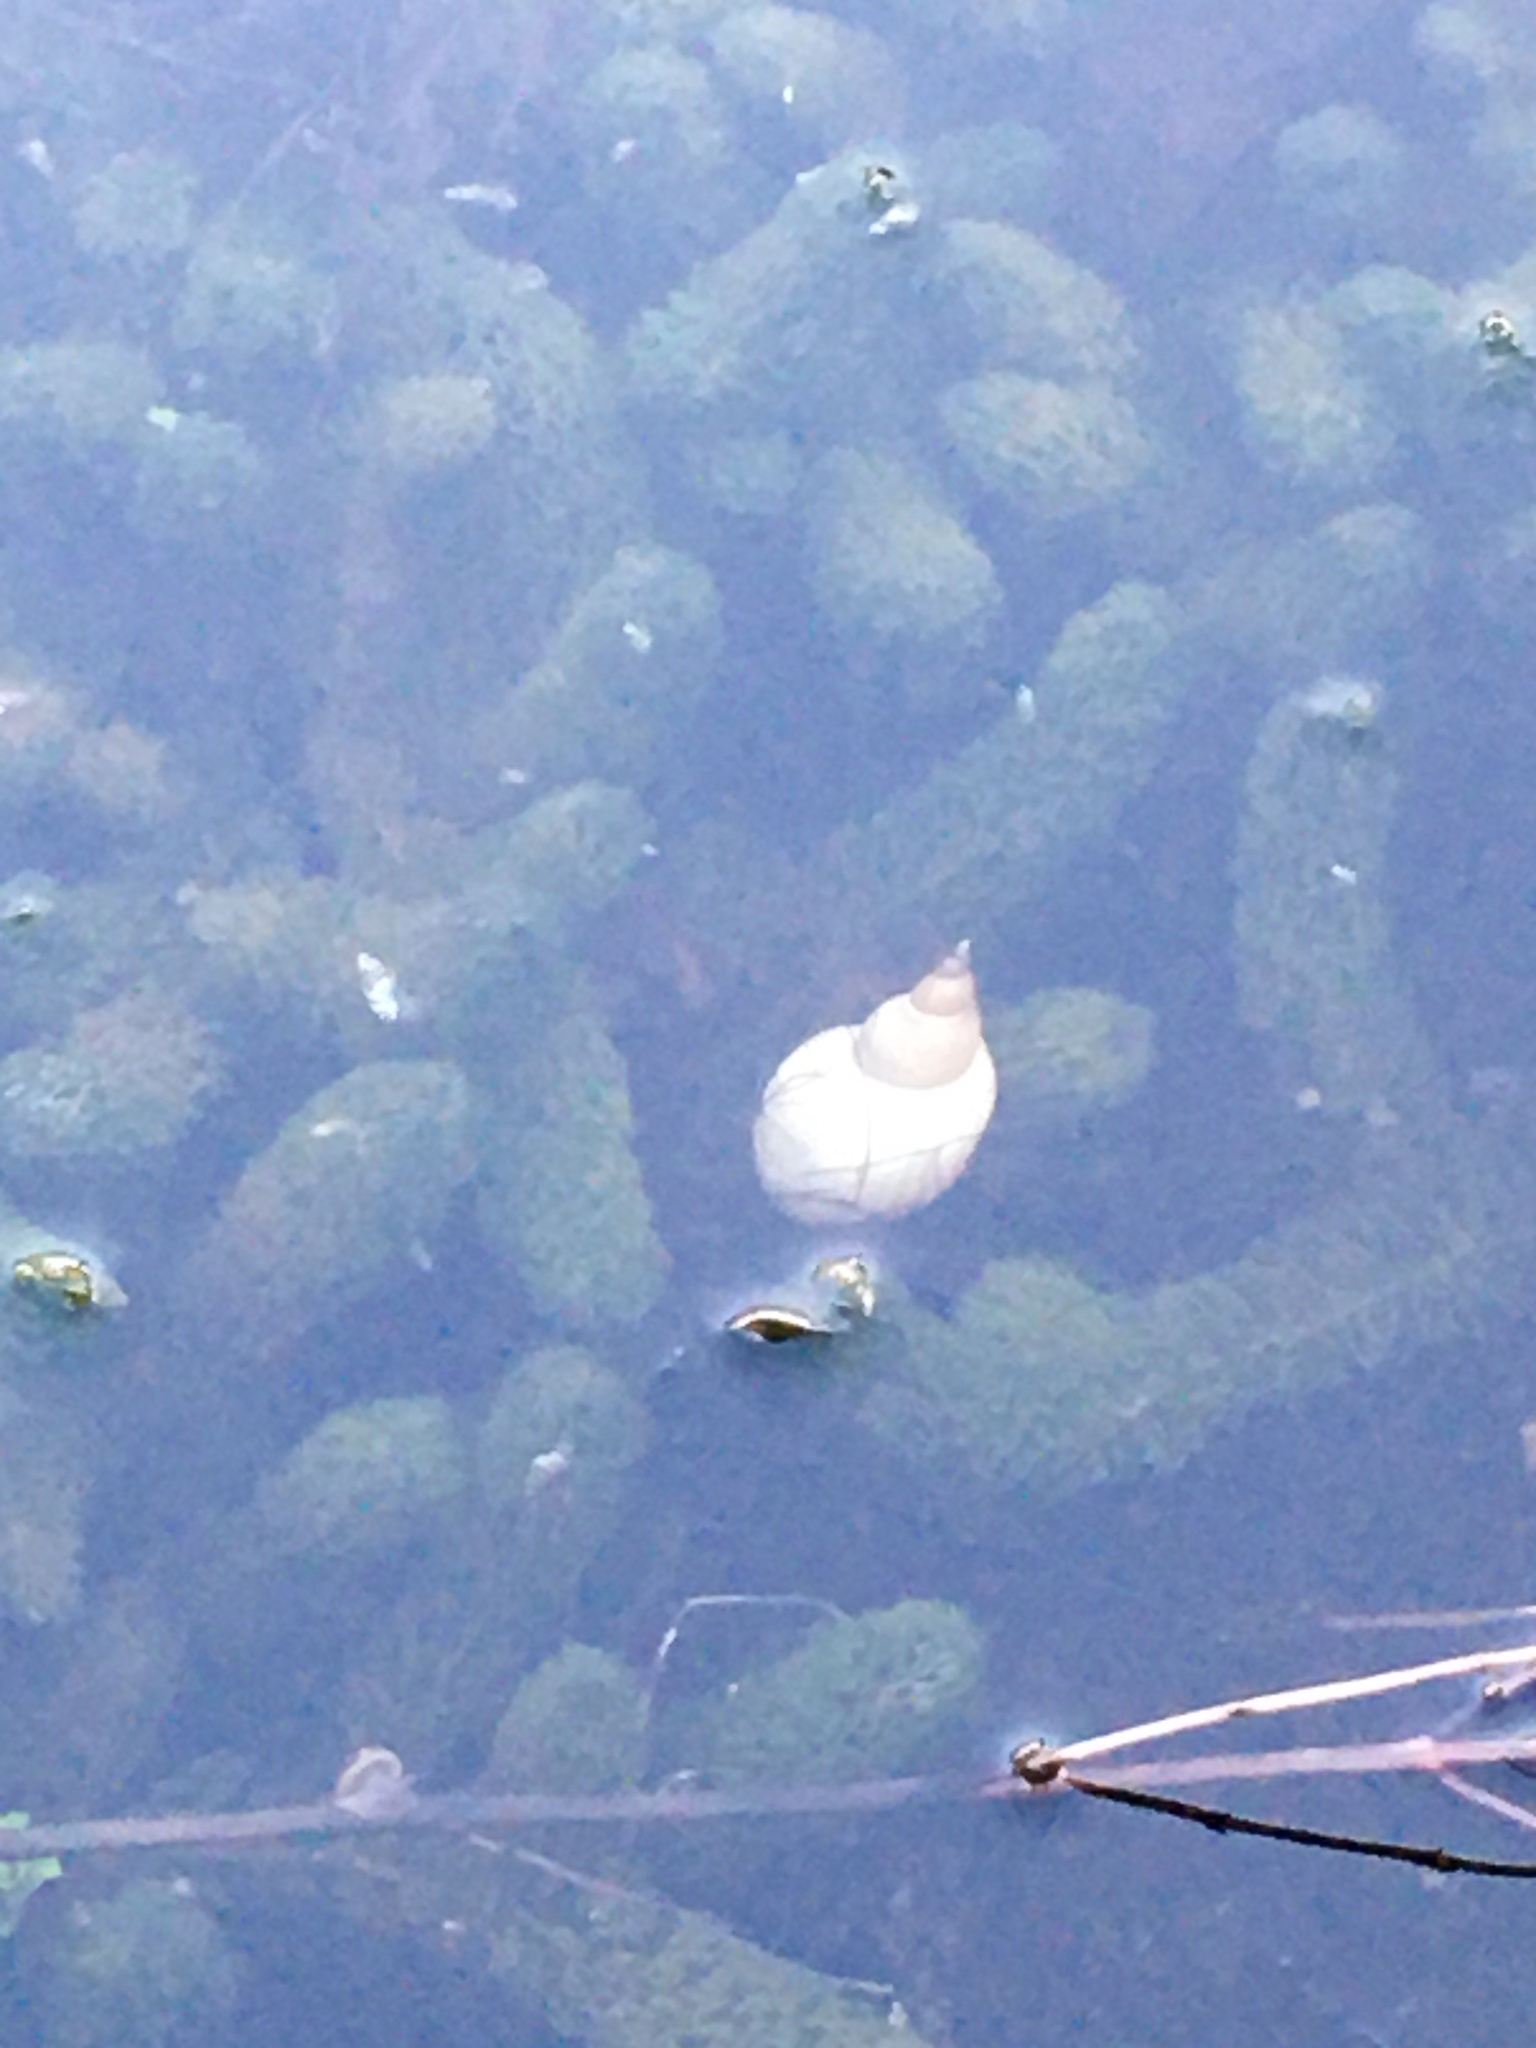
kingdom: Animalia
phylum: Mollusca
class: Gastropoda
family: Lymnaeidae
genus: Lymnaea
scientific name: Lymnaea stagnalis
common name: Great pond snail
